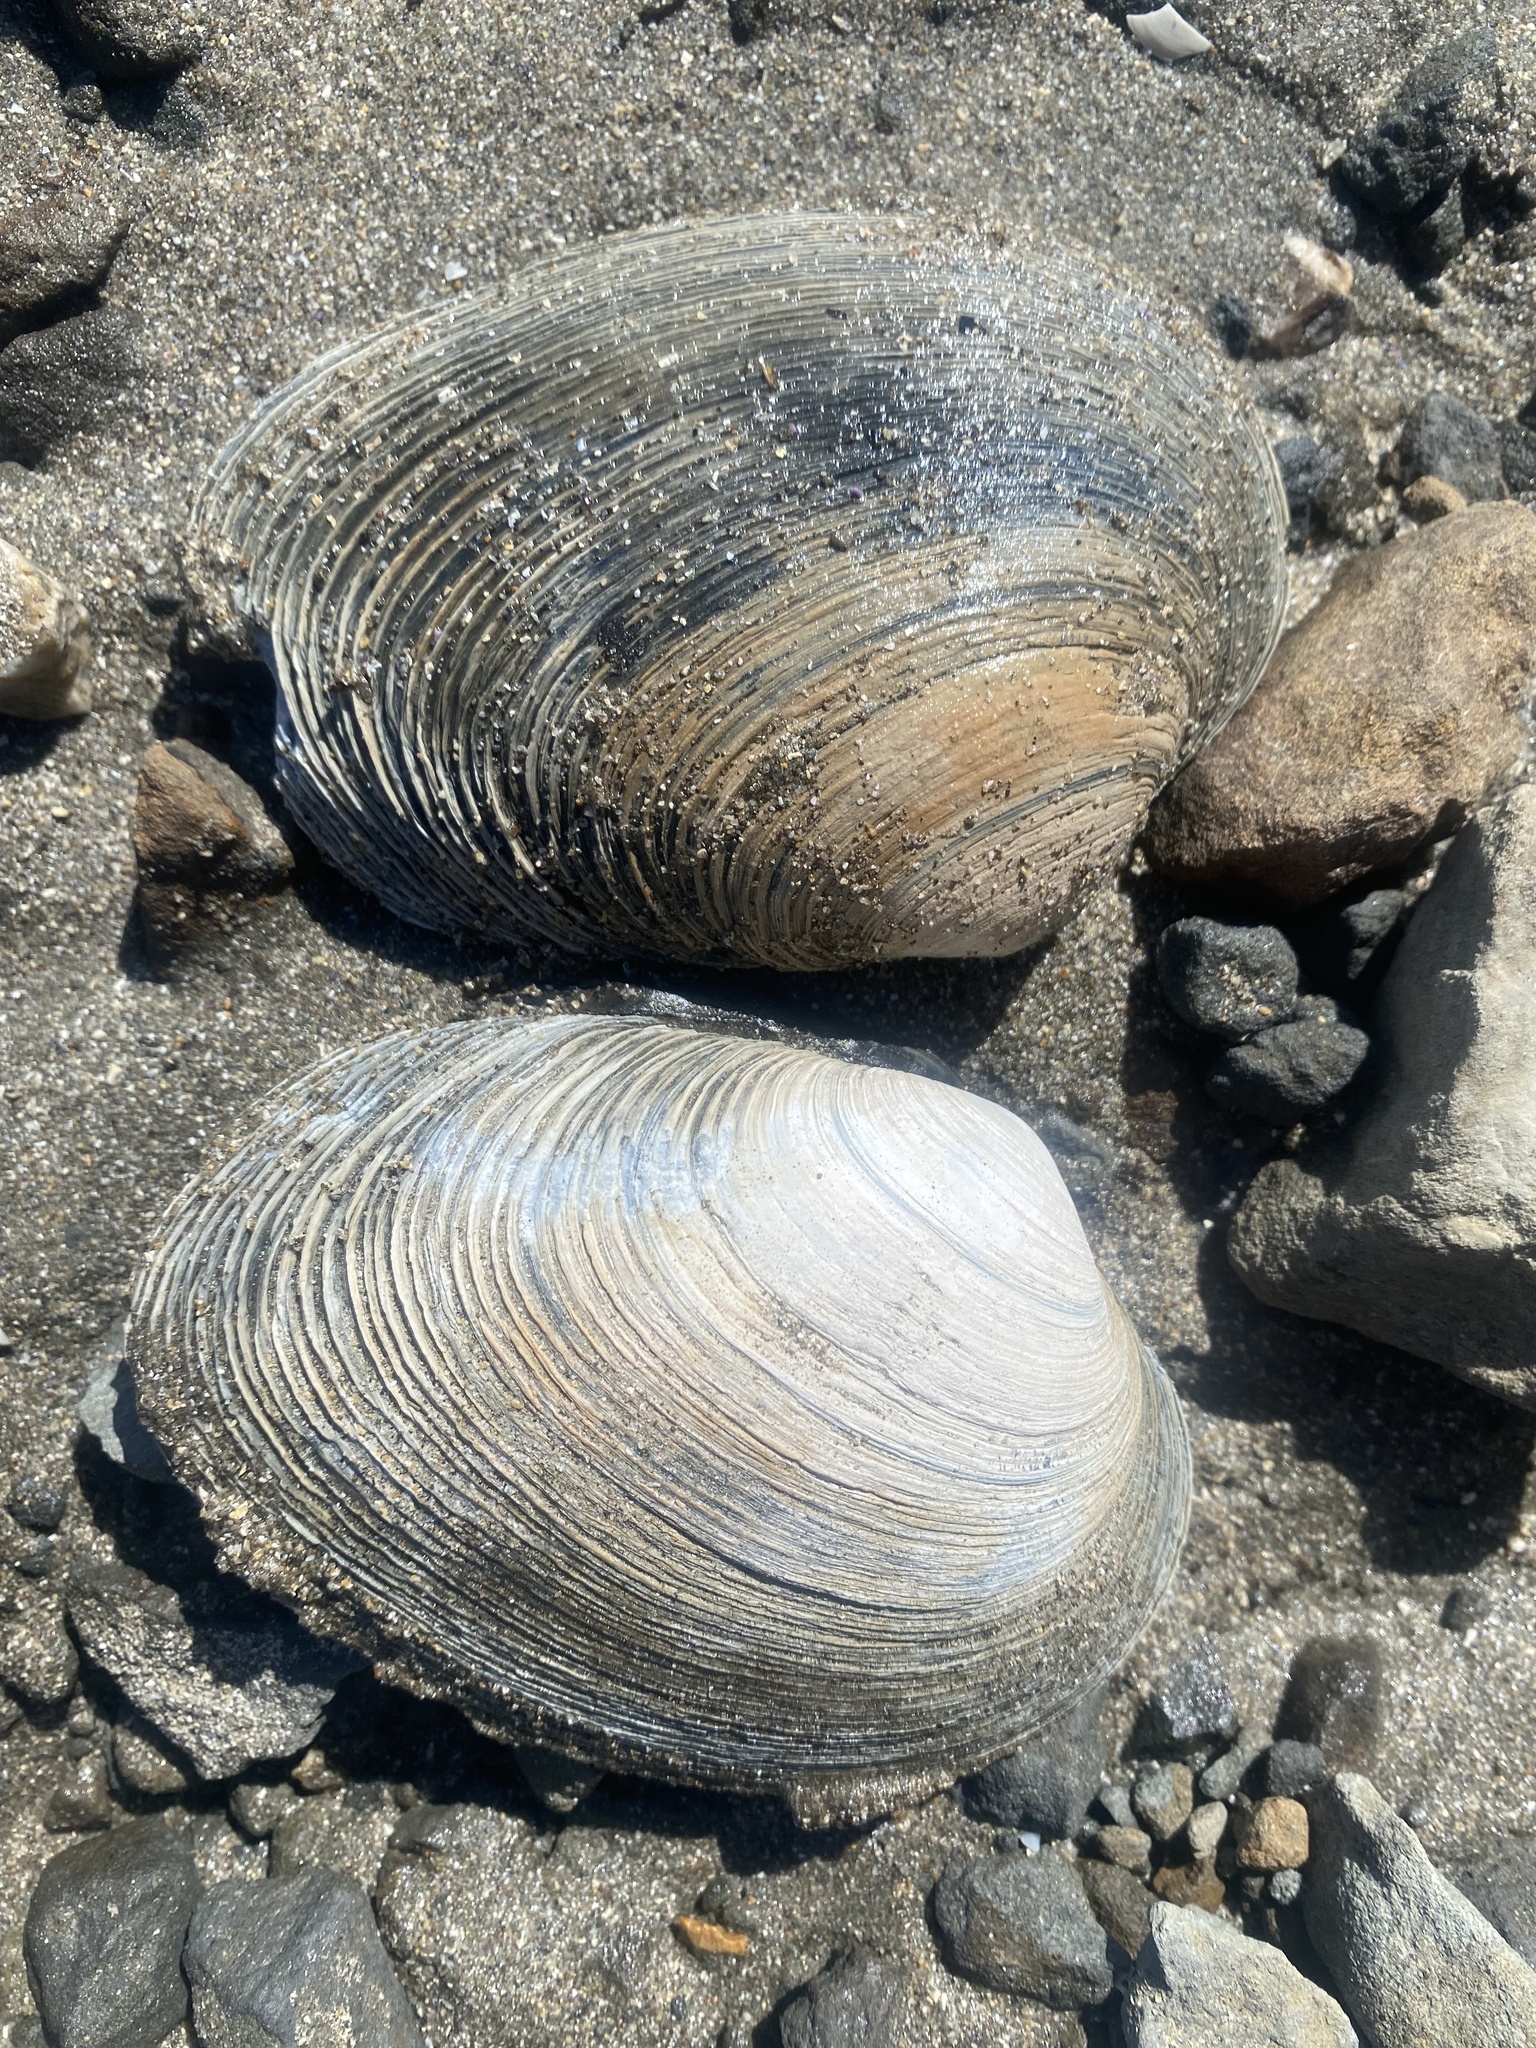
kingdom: Animalia
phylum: Mollusca
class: Bivalvia
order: Venerida
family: Veneridae
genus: Saxidomus
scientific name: Saxidomus nuttalli
